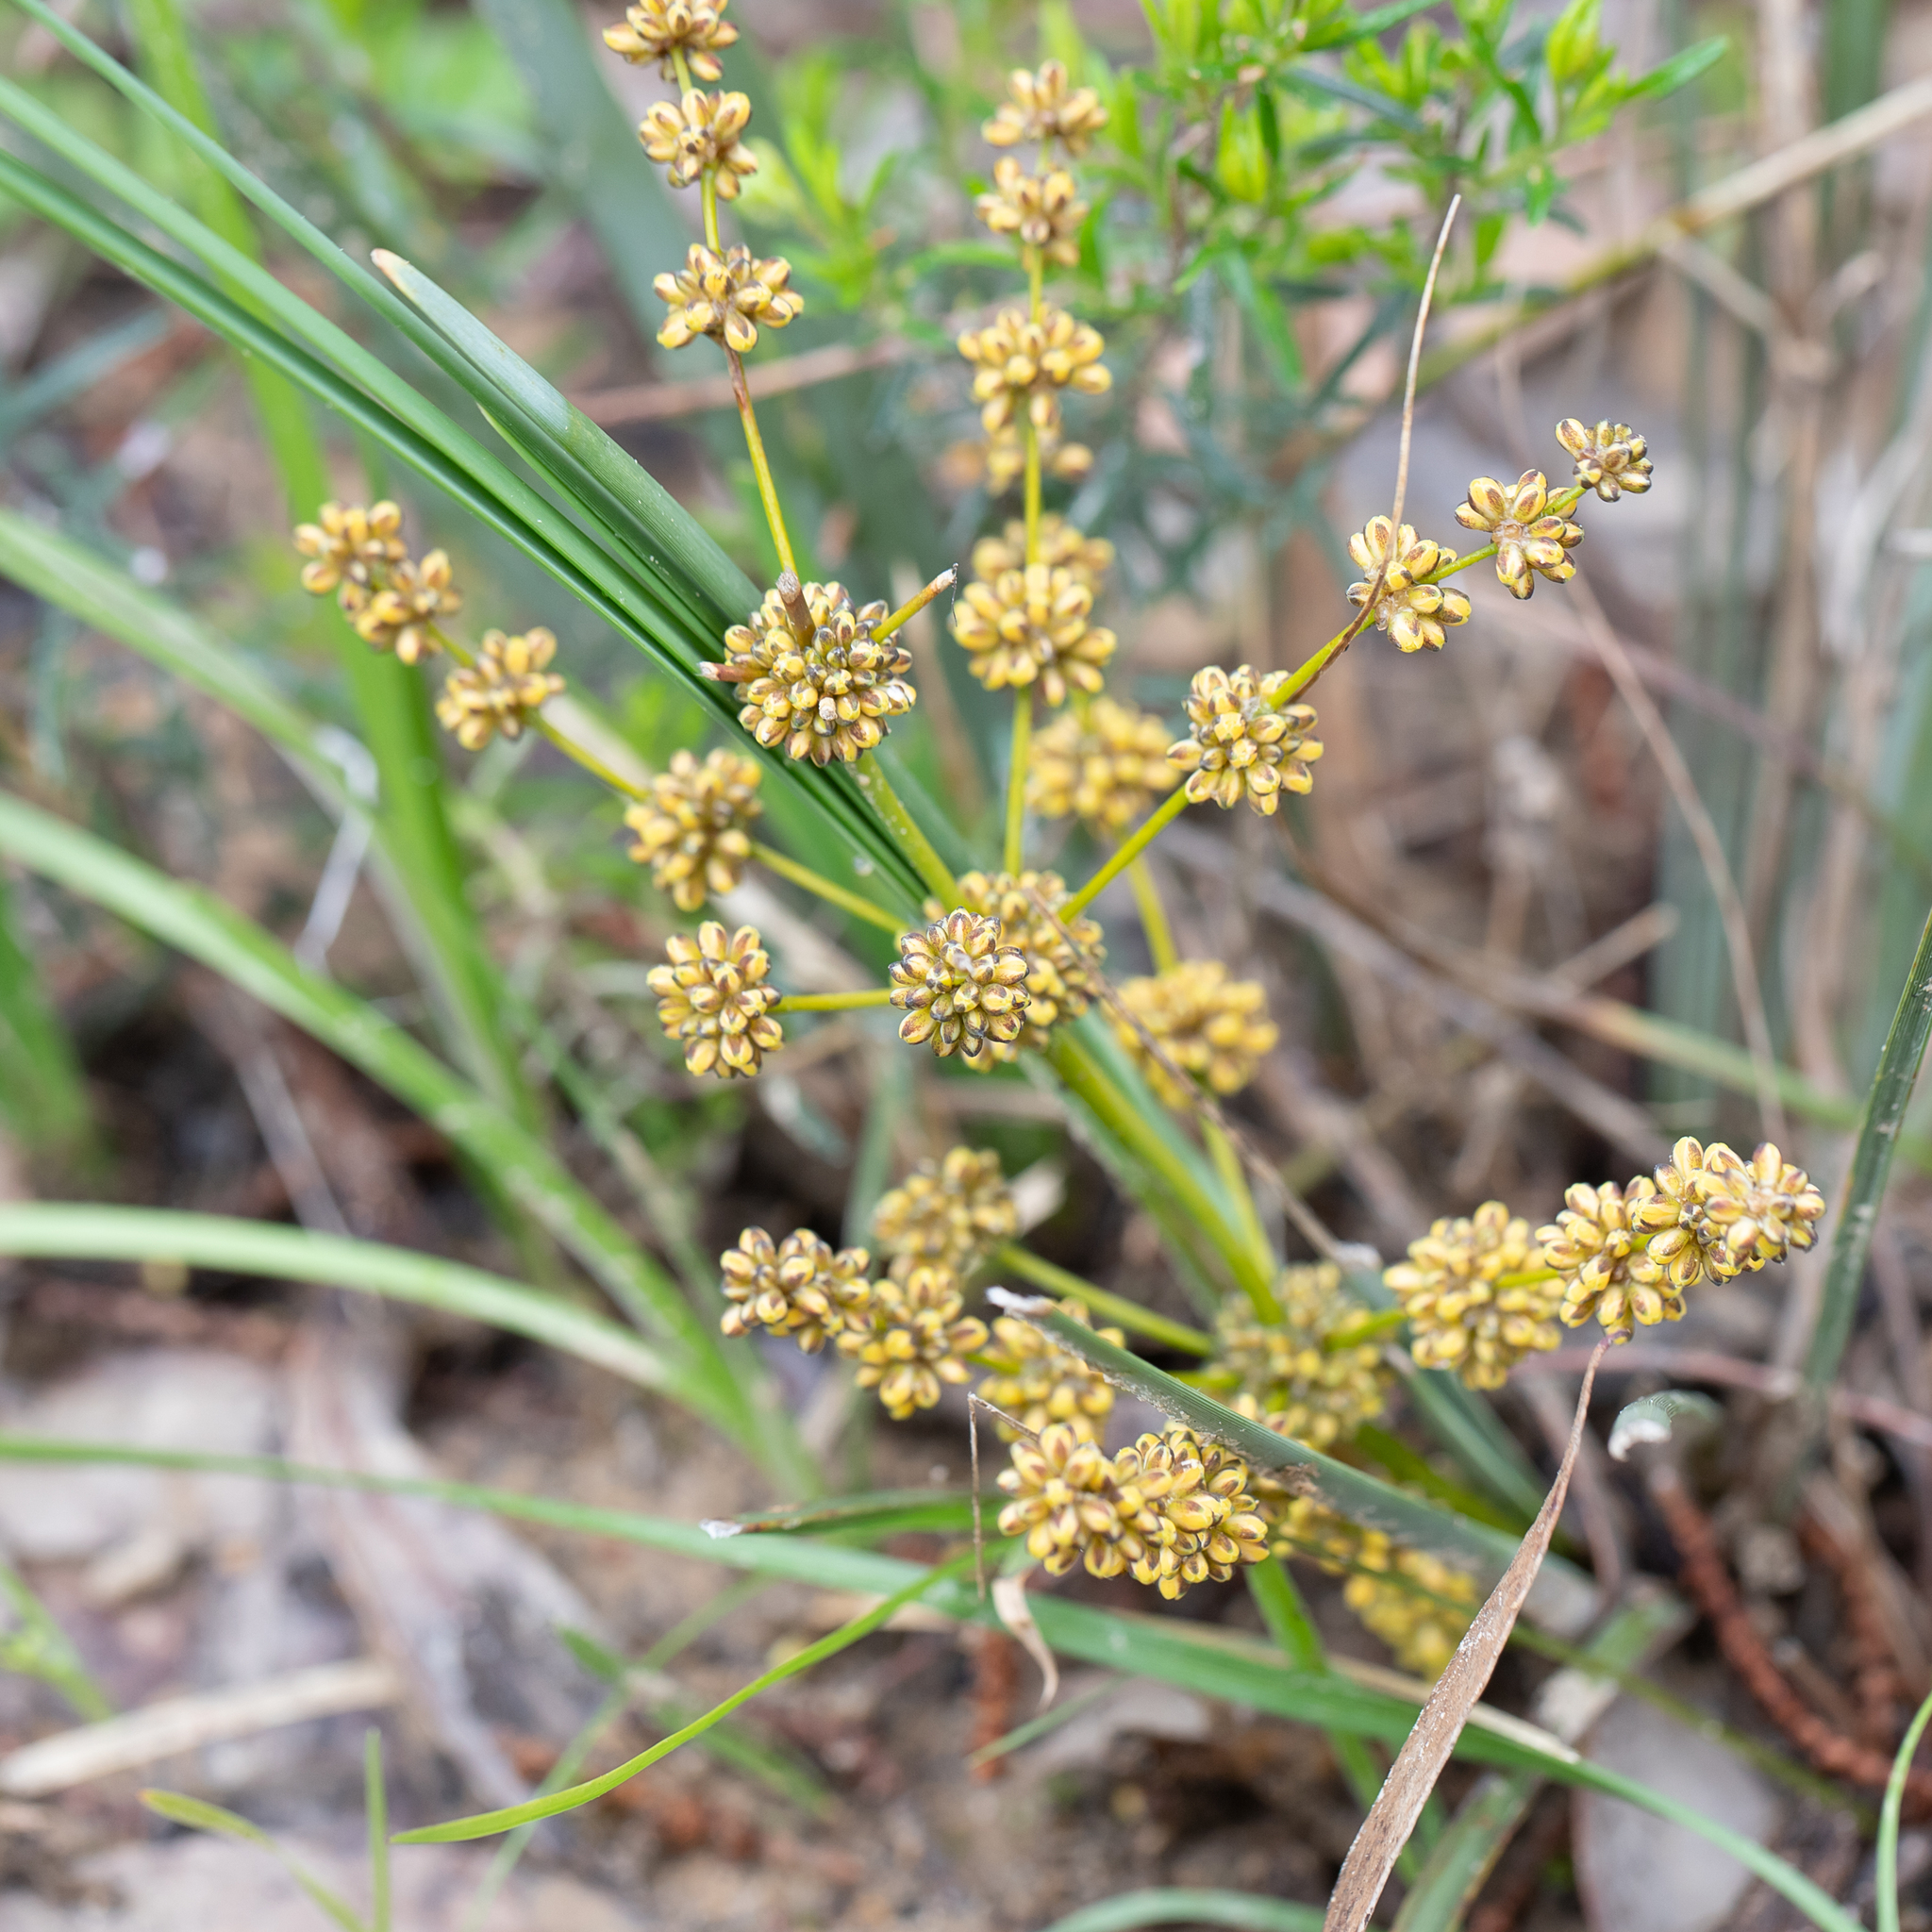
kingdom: Plantae
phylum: Tracheophyta
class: Liliopsida
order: Asparagales
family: Asparagaceae
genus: Lomandra
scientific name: Lomandra multiflora
